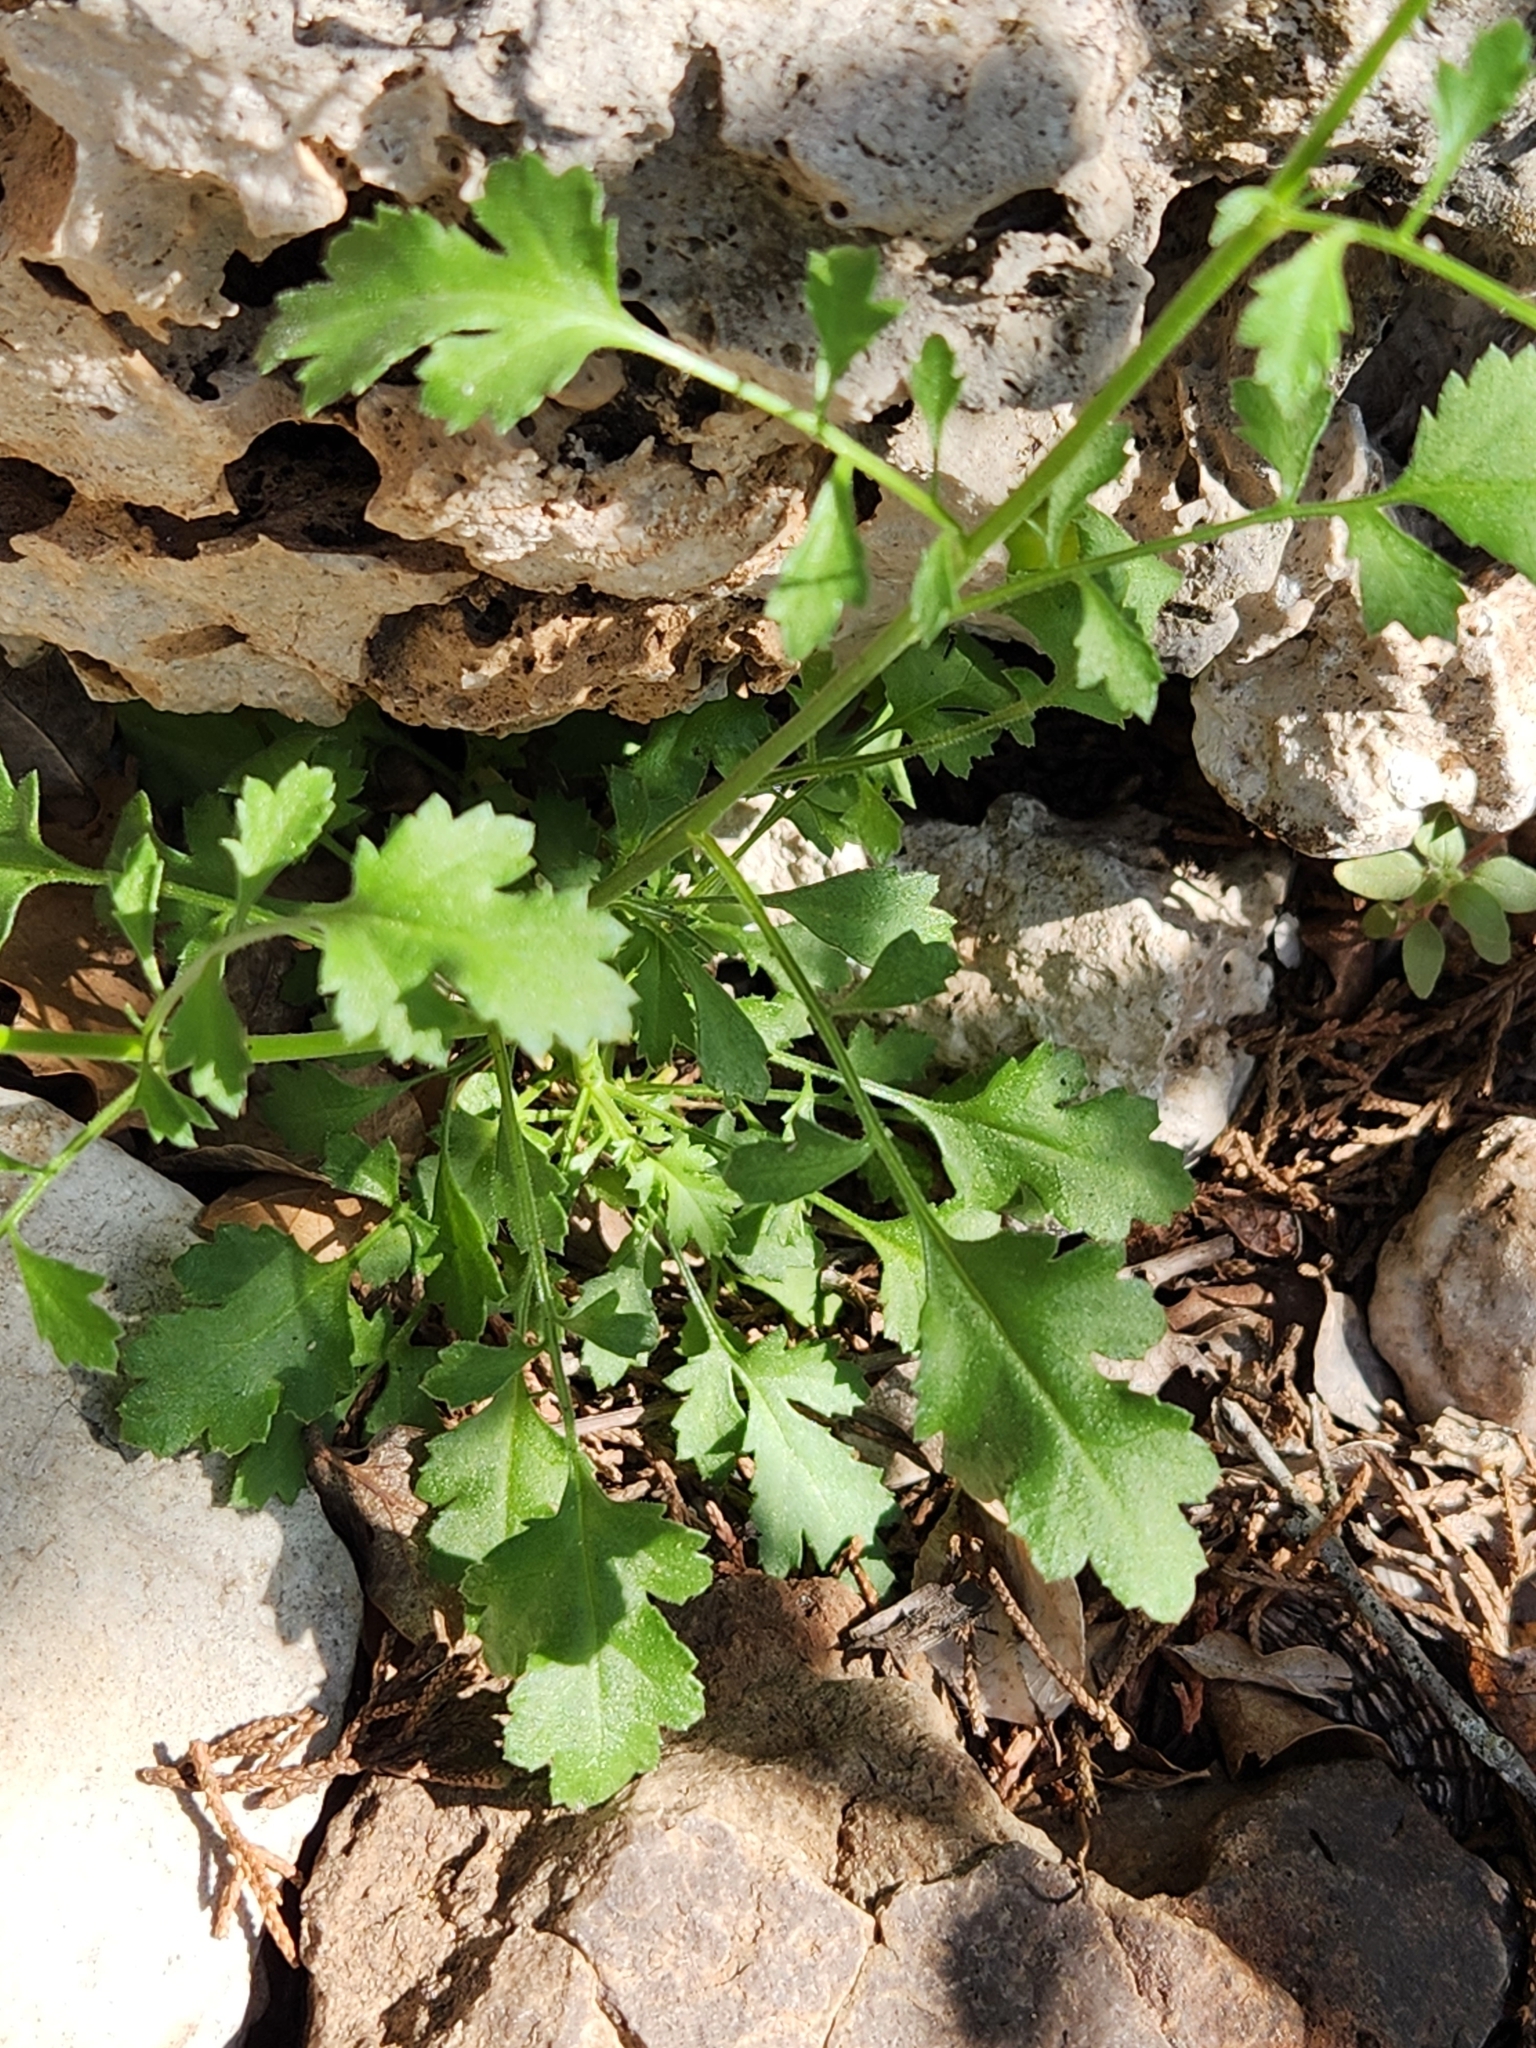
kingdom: Plantae
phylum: Tracheophyta
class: Magnoliopsida
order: Ericales
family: Polemoniaceae
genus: Giliastrum
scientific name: Giliastrum incisum
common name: Splitleaf gilia
